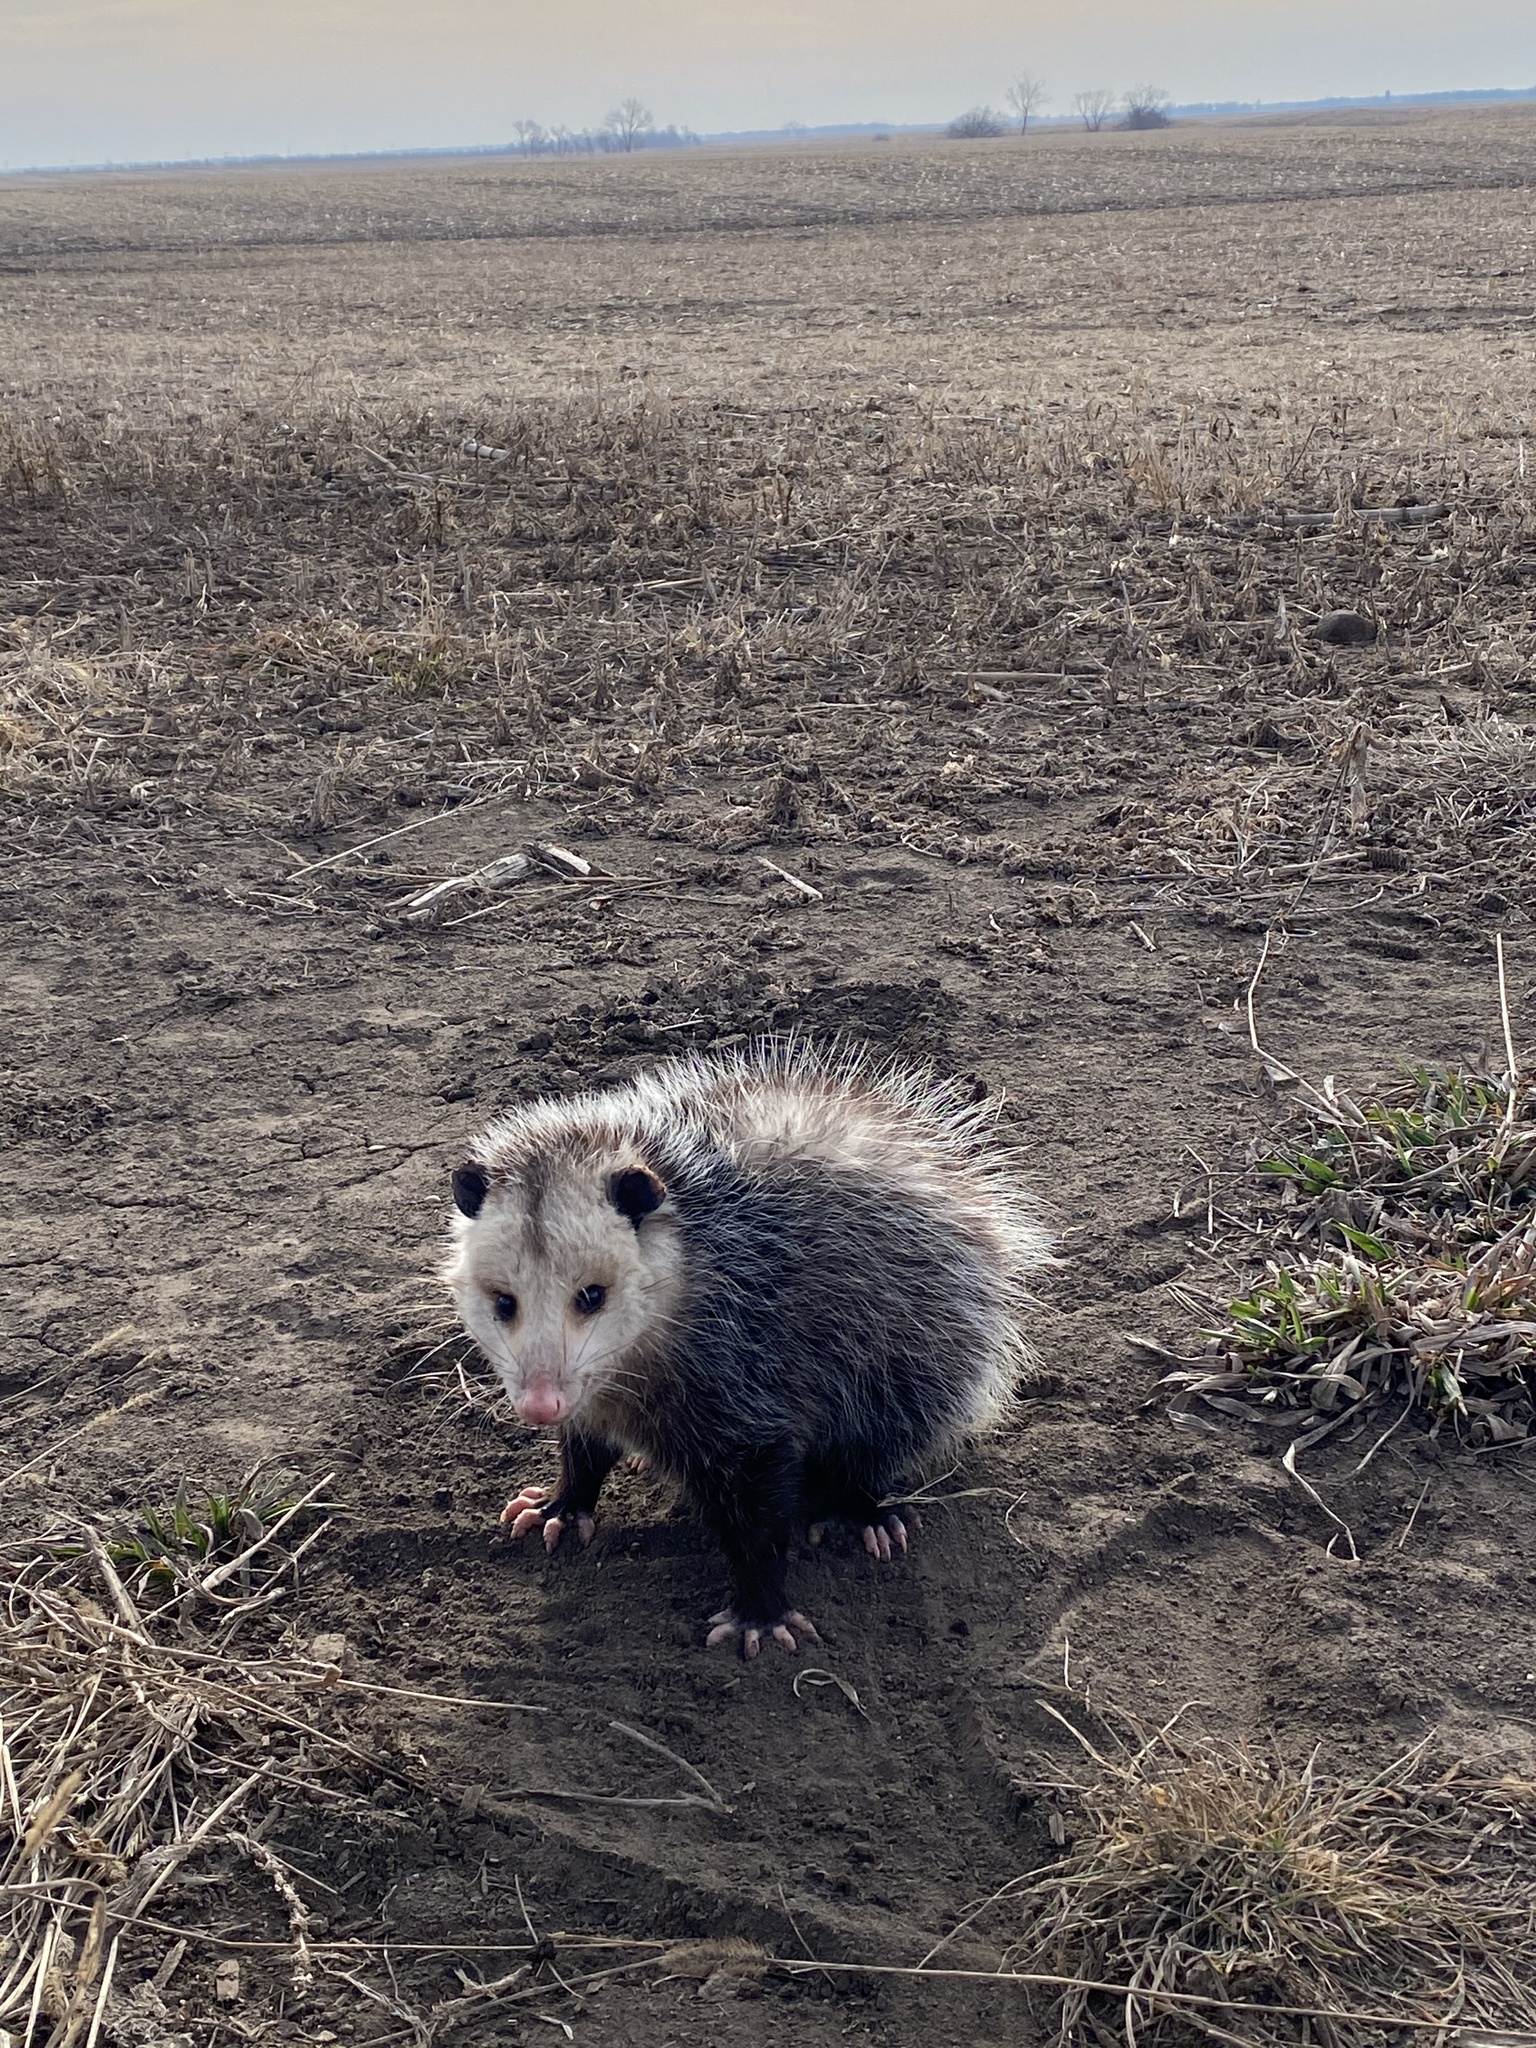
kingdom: Animalia
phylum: Chordata
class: Mammalia
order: Didelphimorphia
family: Didelphidae
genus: Didelphis
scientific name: Didelphis virginiana
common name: Virginia opossum
